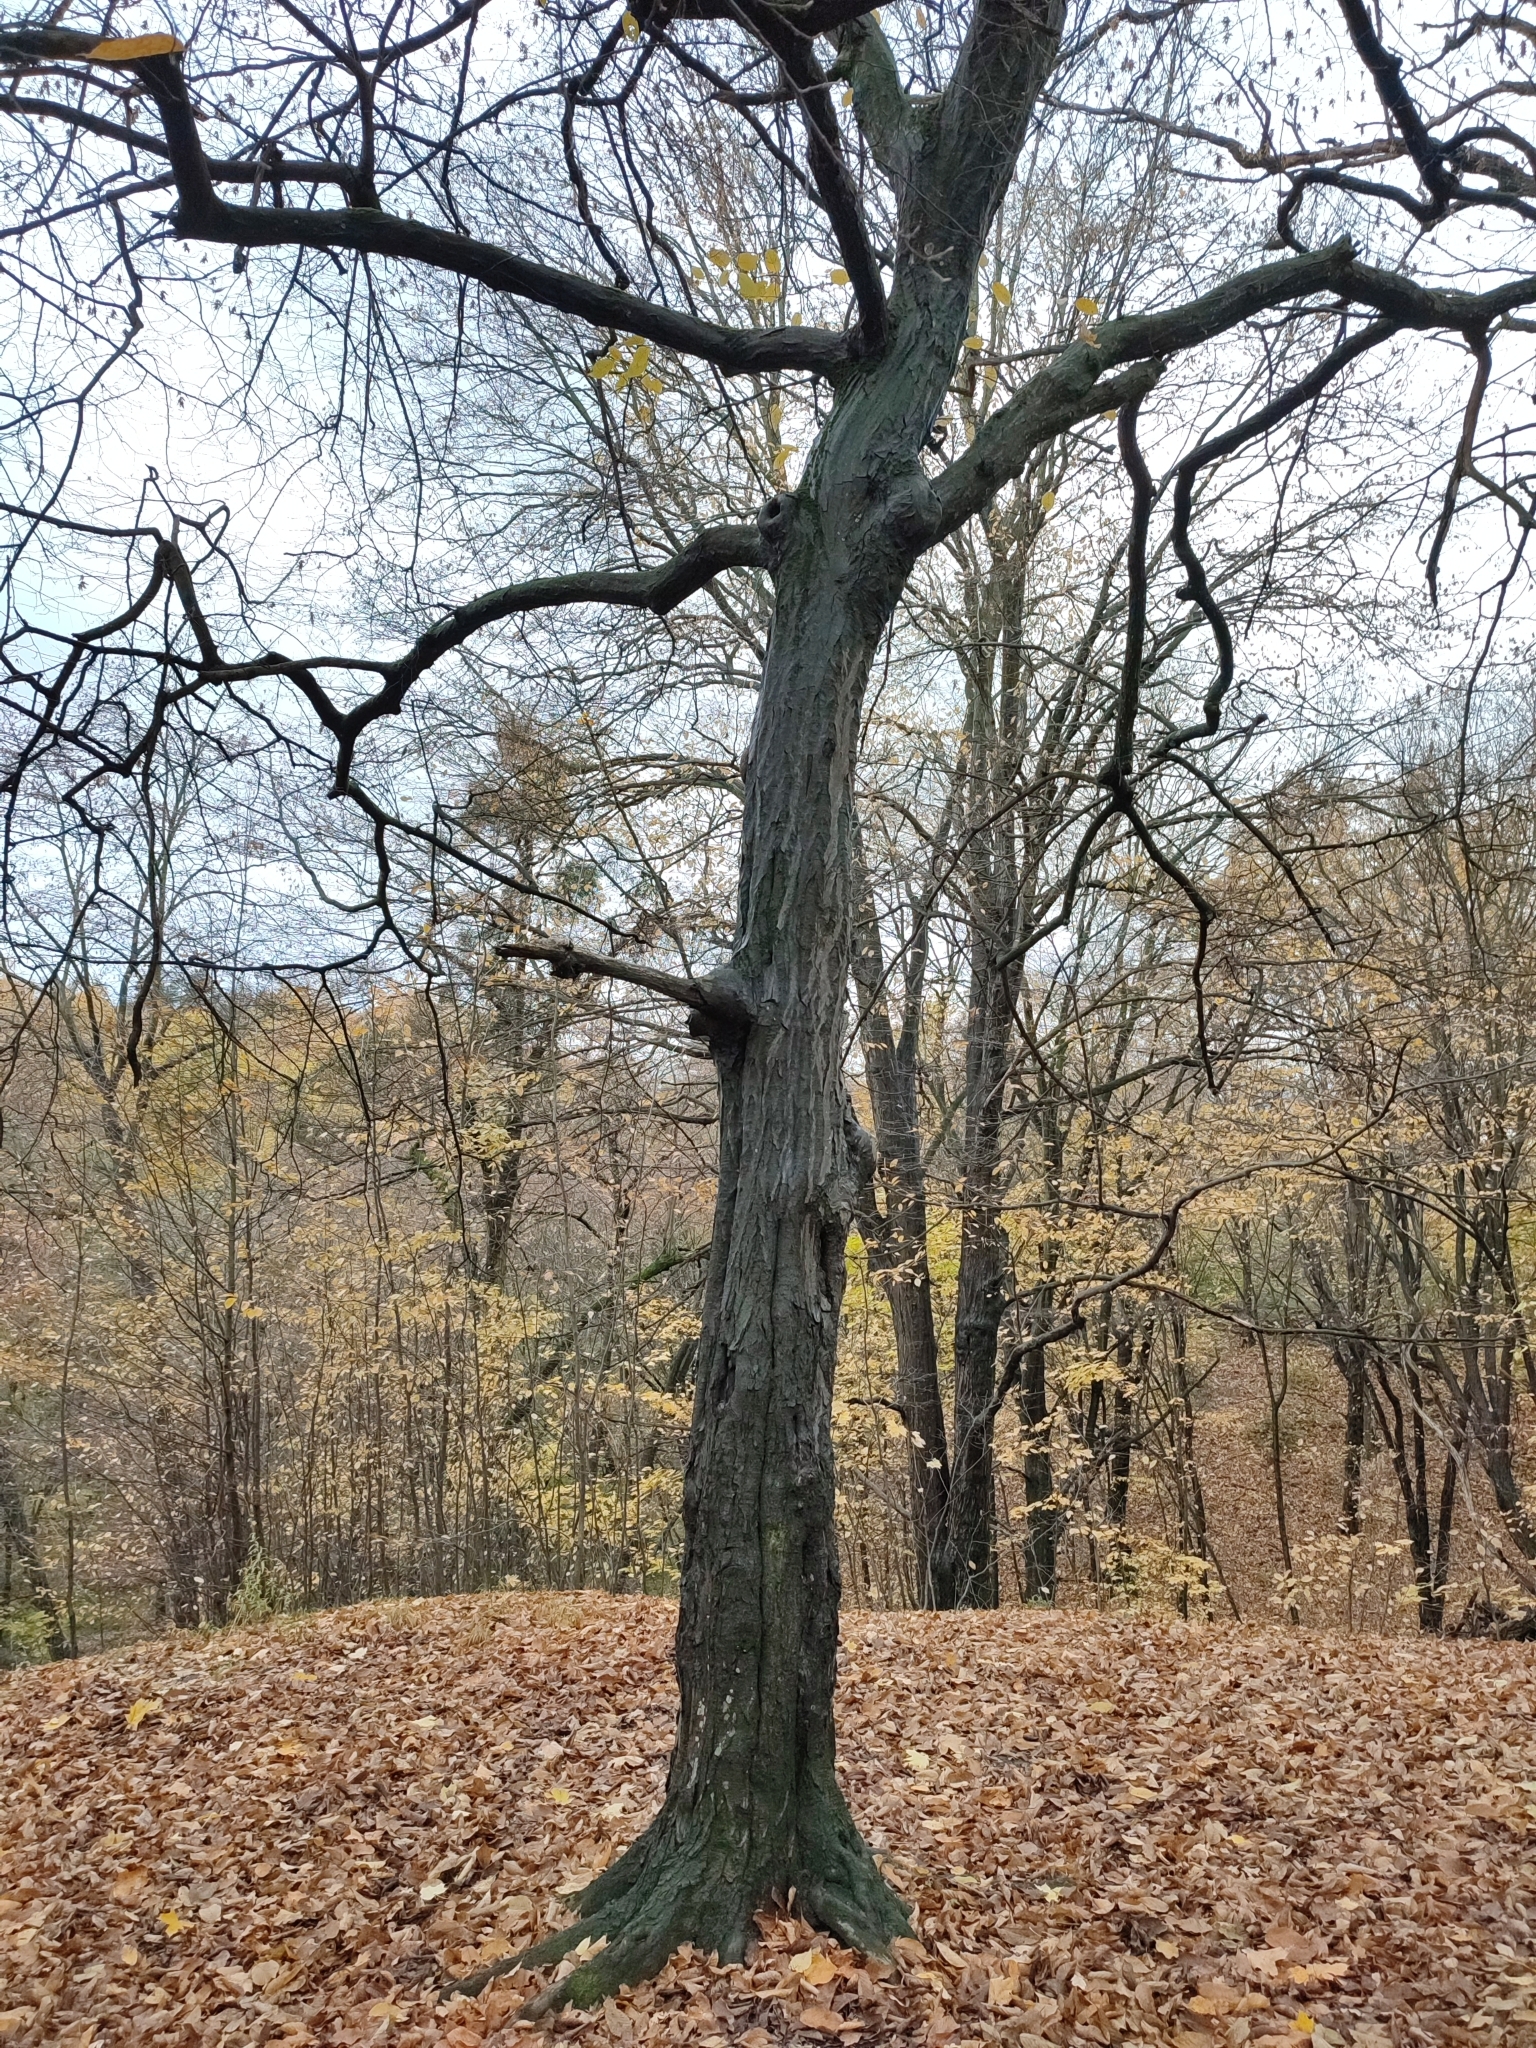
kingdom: Plantae
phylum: Tracheophyta
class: Magnoliopsida
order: Fagales
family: Betulaceae
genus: Carpinus
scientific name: Carpinus betulus
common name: Hornbeam
